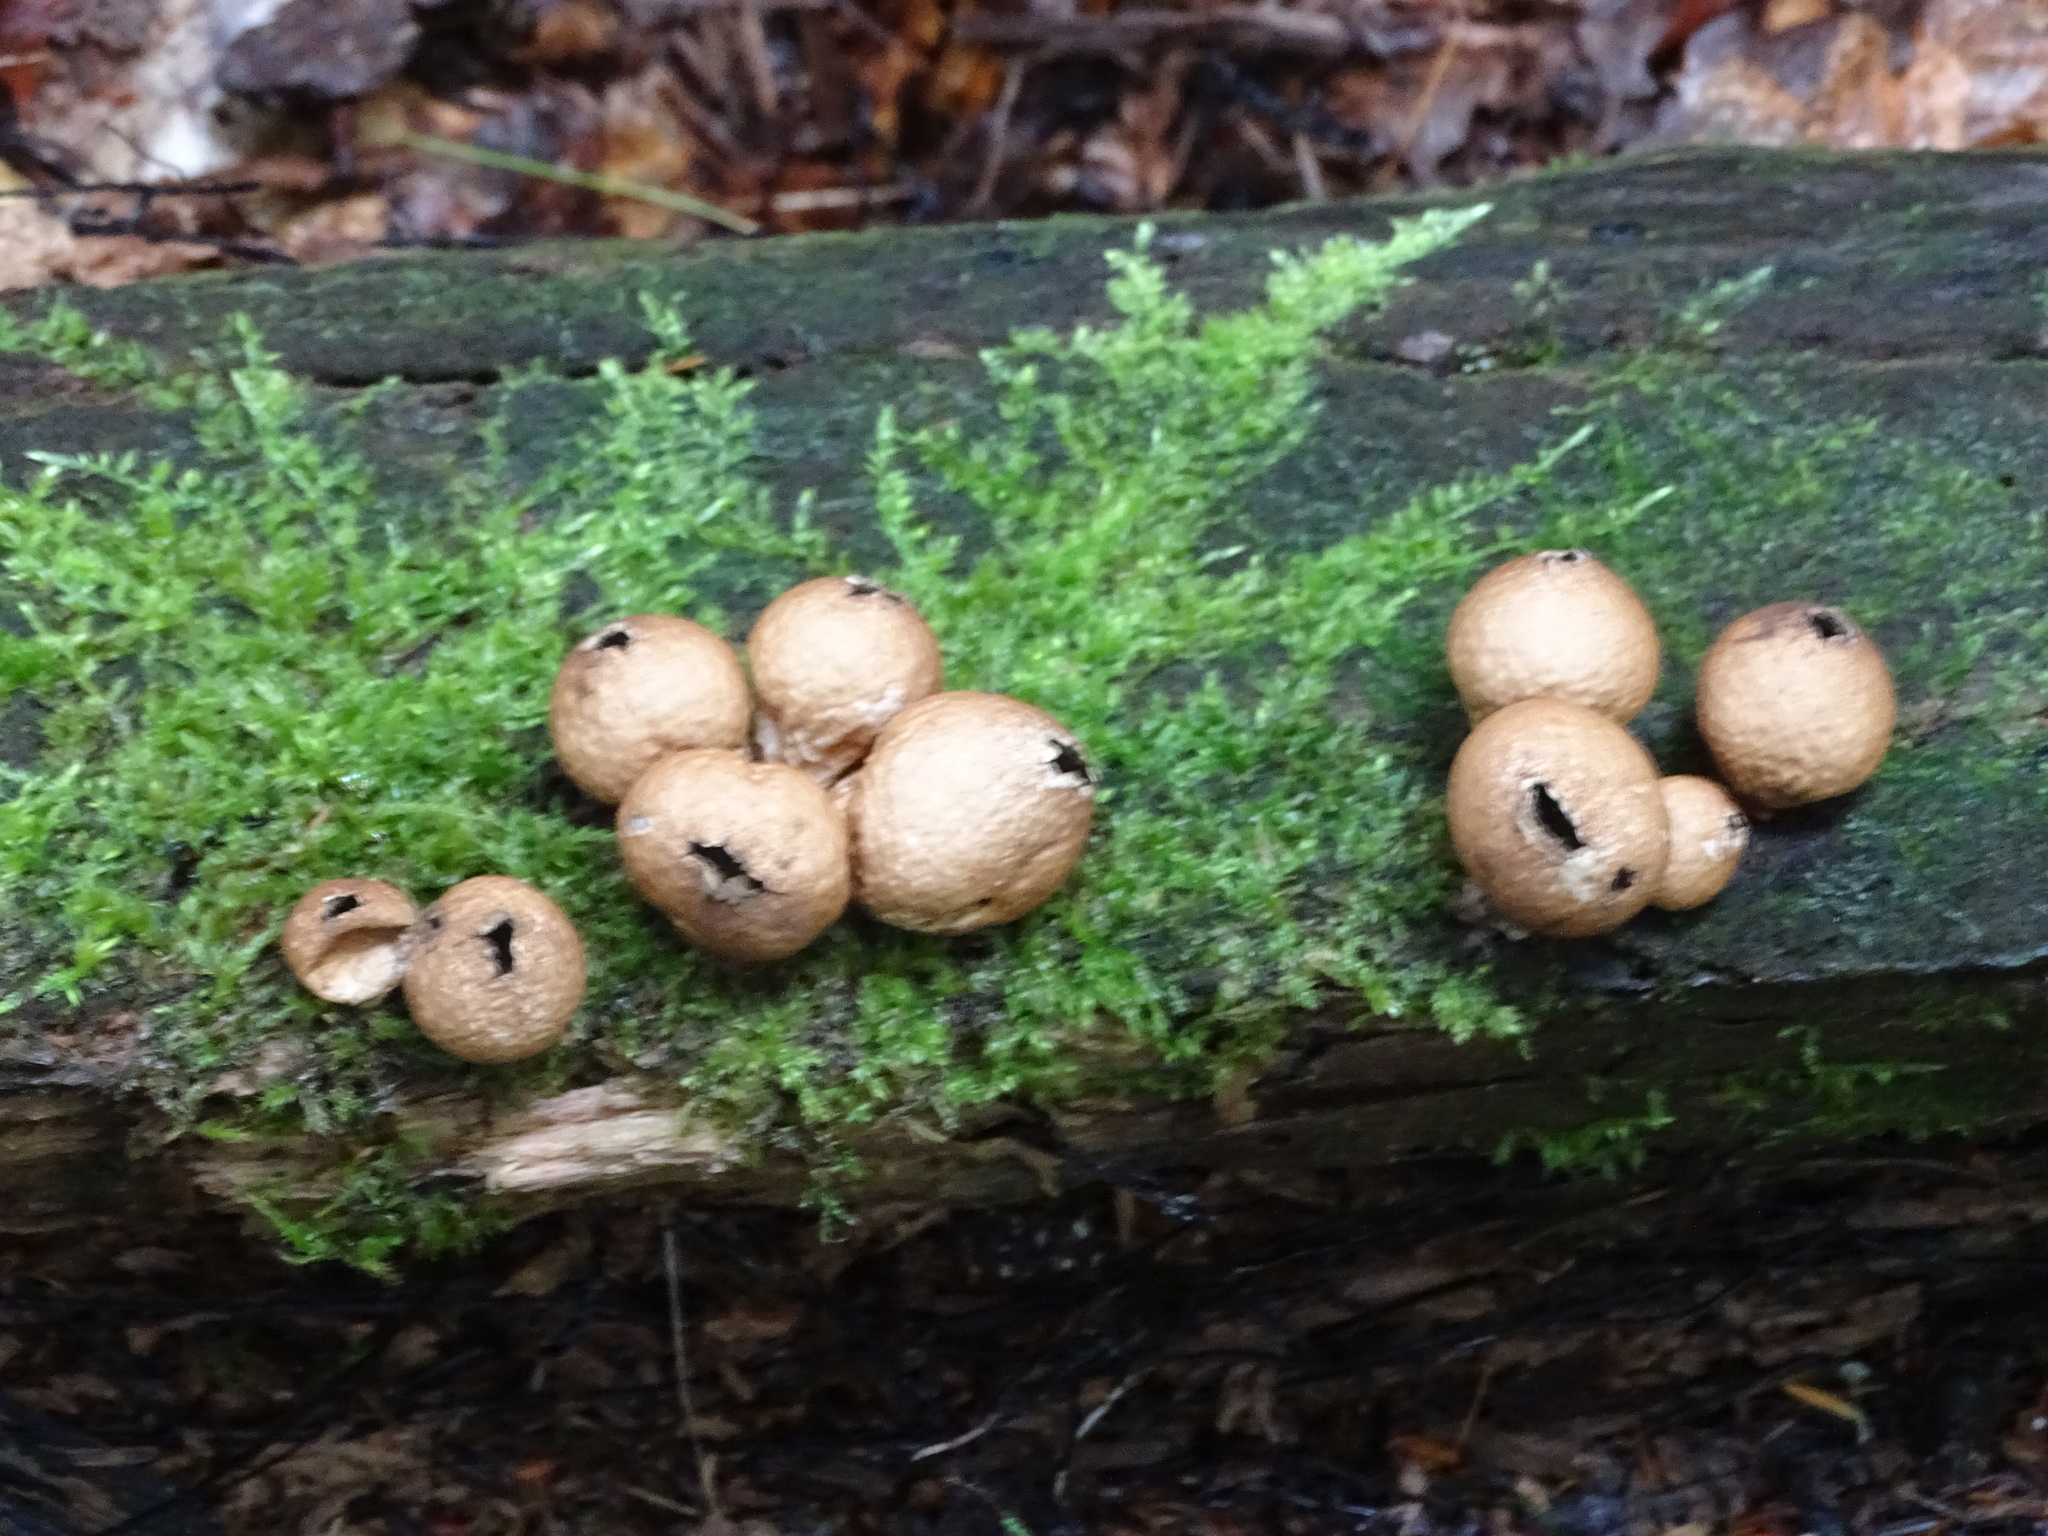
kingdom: Fungi
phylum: Basidiomycota
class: Agaricomycetes
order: Agaricales
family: Lycoperdaceae
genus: Apioperdon
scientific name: Apioperdon pyriforme
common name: Pear-shaped puffball
